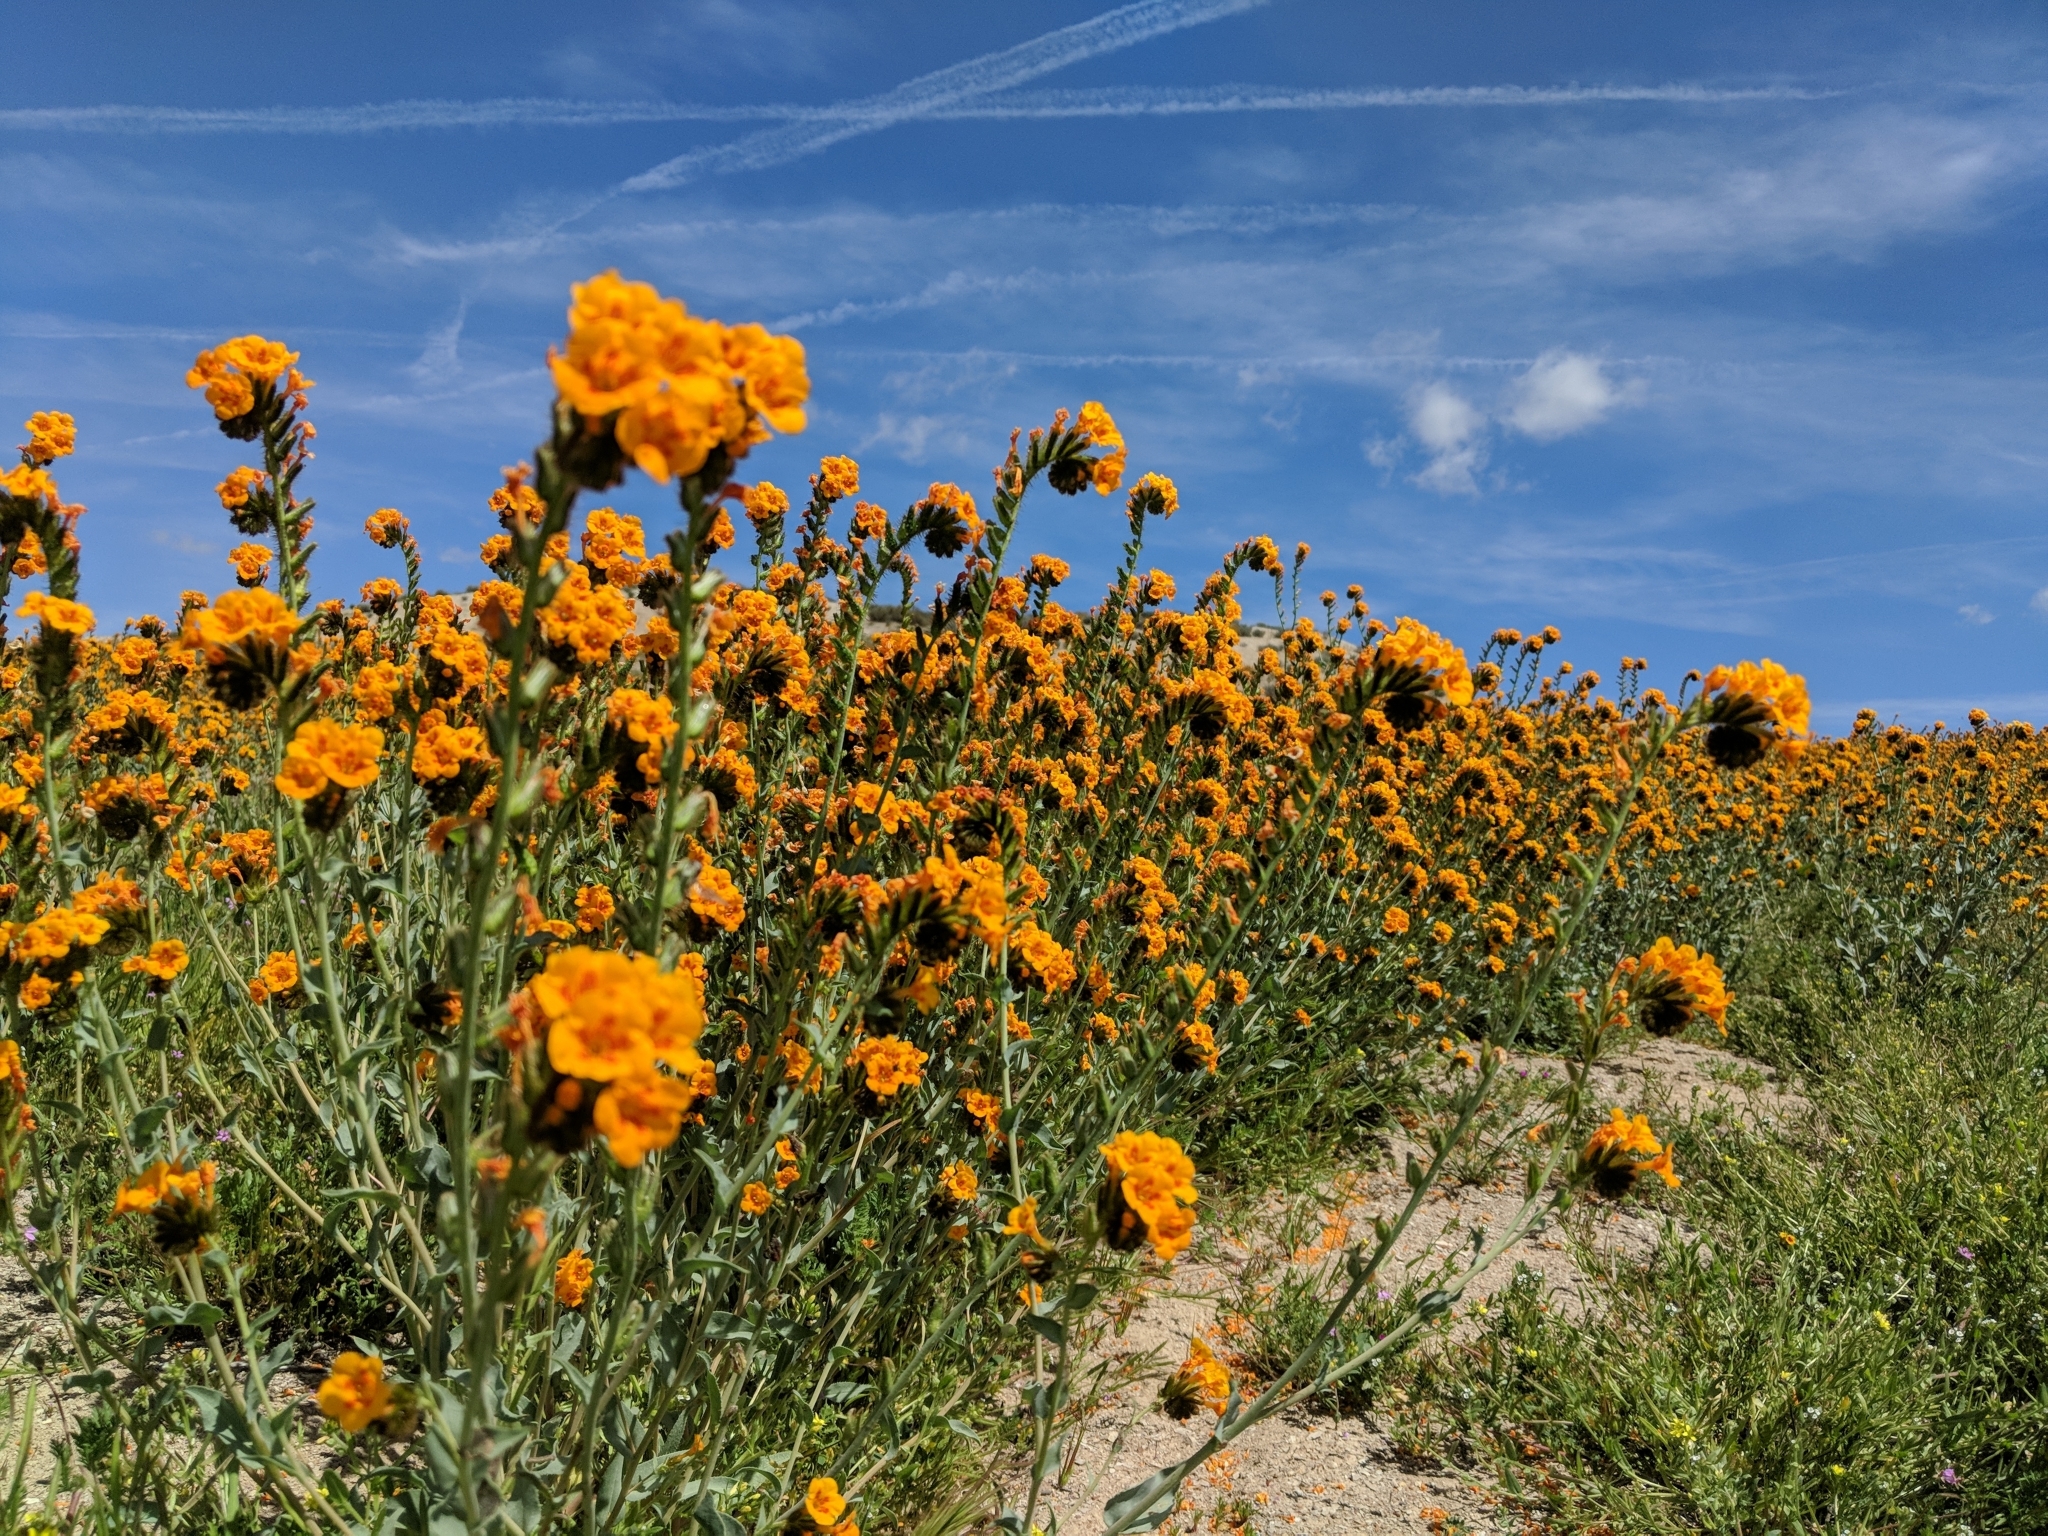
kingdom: Plantae
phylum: Tracheophyta
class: Magnoliopsida
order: Boraginales
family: Boraginaceae
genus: Amsinckia
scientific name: Amsinckia vernicosa
